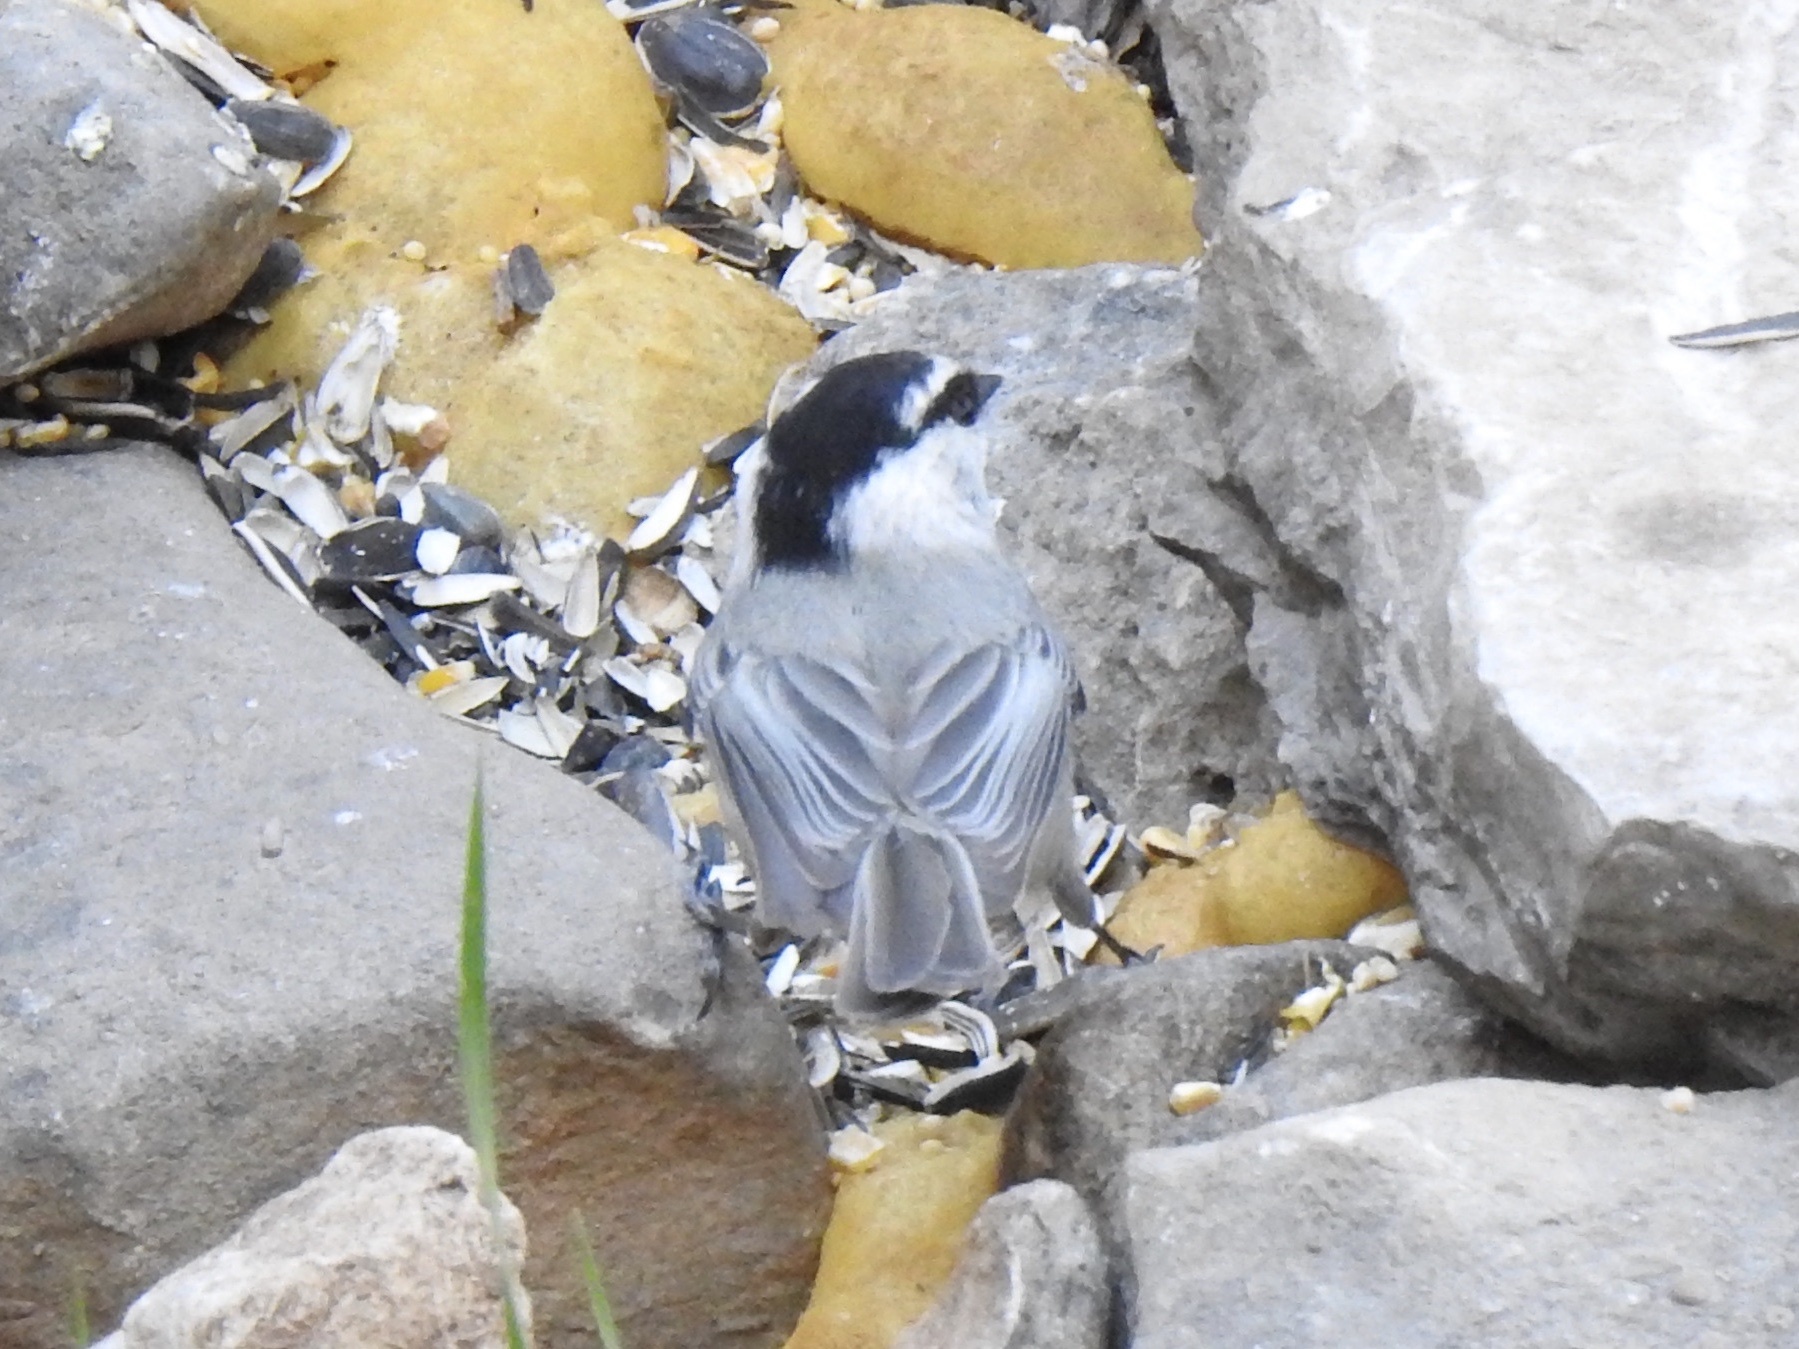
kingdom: Animalia
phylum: Chordata
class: Aves
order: Passeriformes
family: Paridae
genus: Poecile
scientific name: Poecile gambeli
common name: Mountain chickadee
